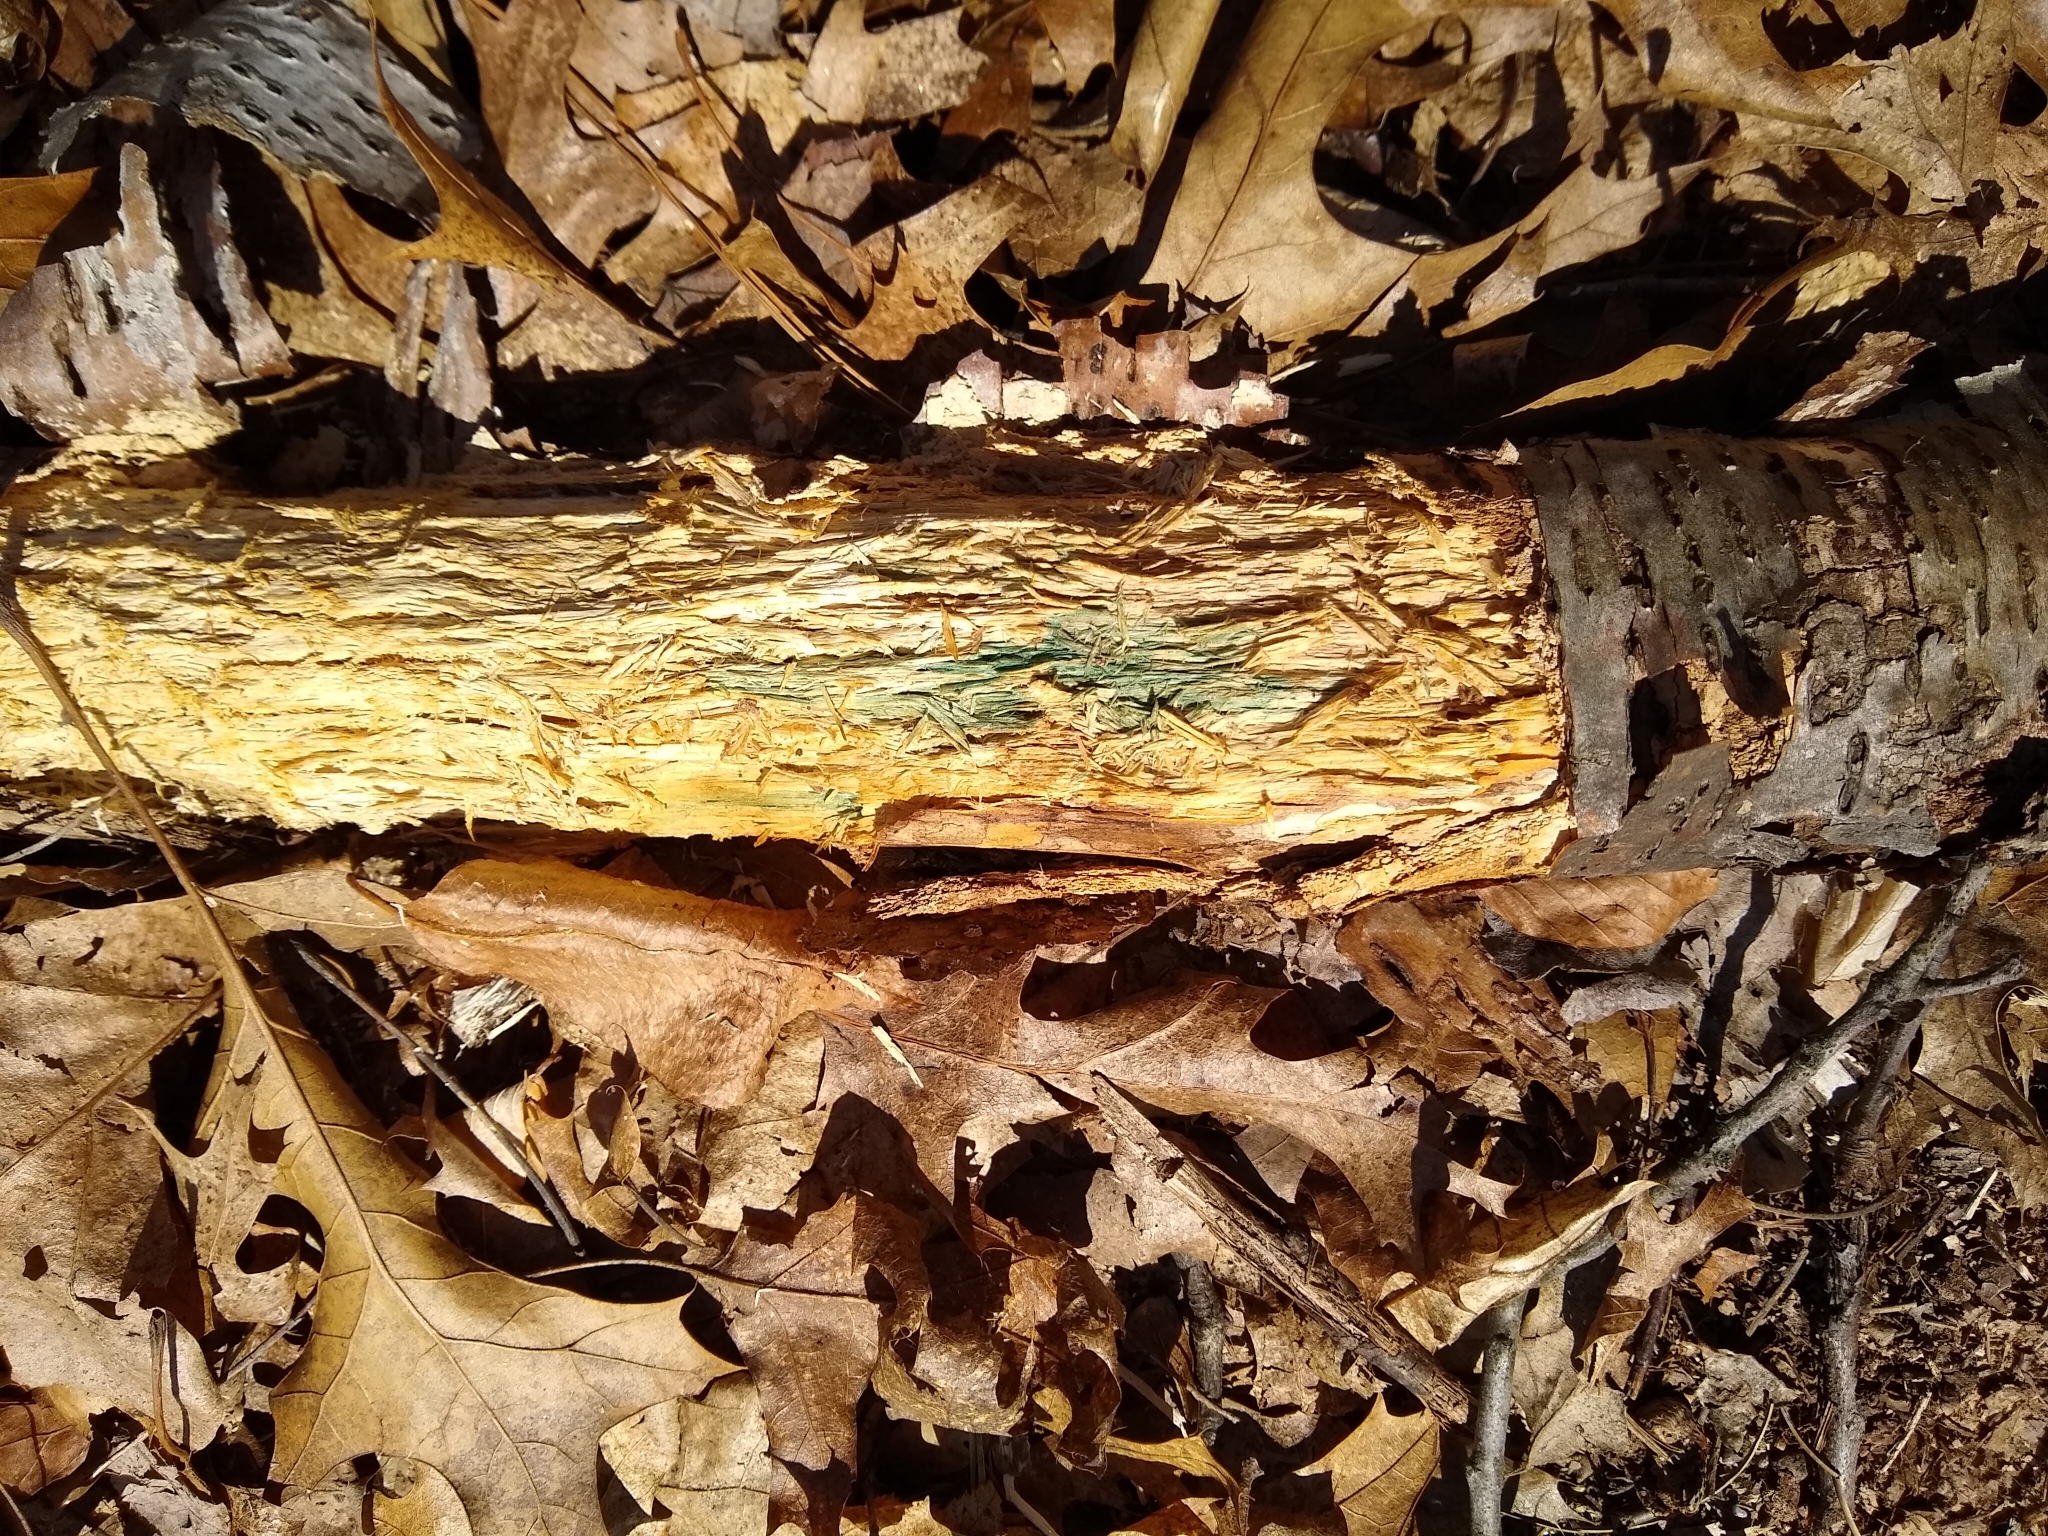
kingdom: Fungi
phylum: Ascomycota
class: Leotiomycetes
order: Helotiales
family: Chlorociboriaceae
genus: Chlorociboria
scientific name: Chlorociboria
